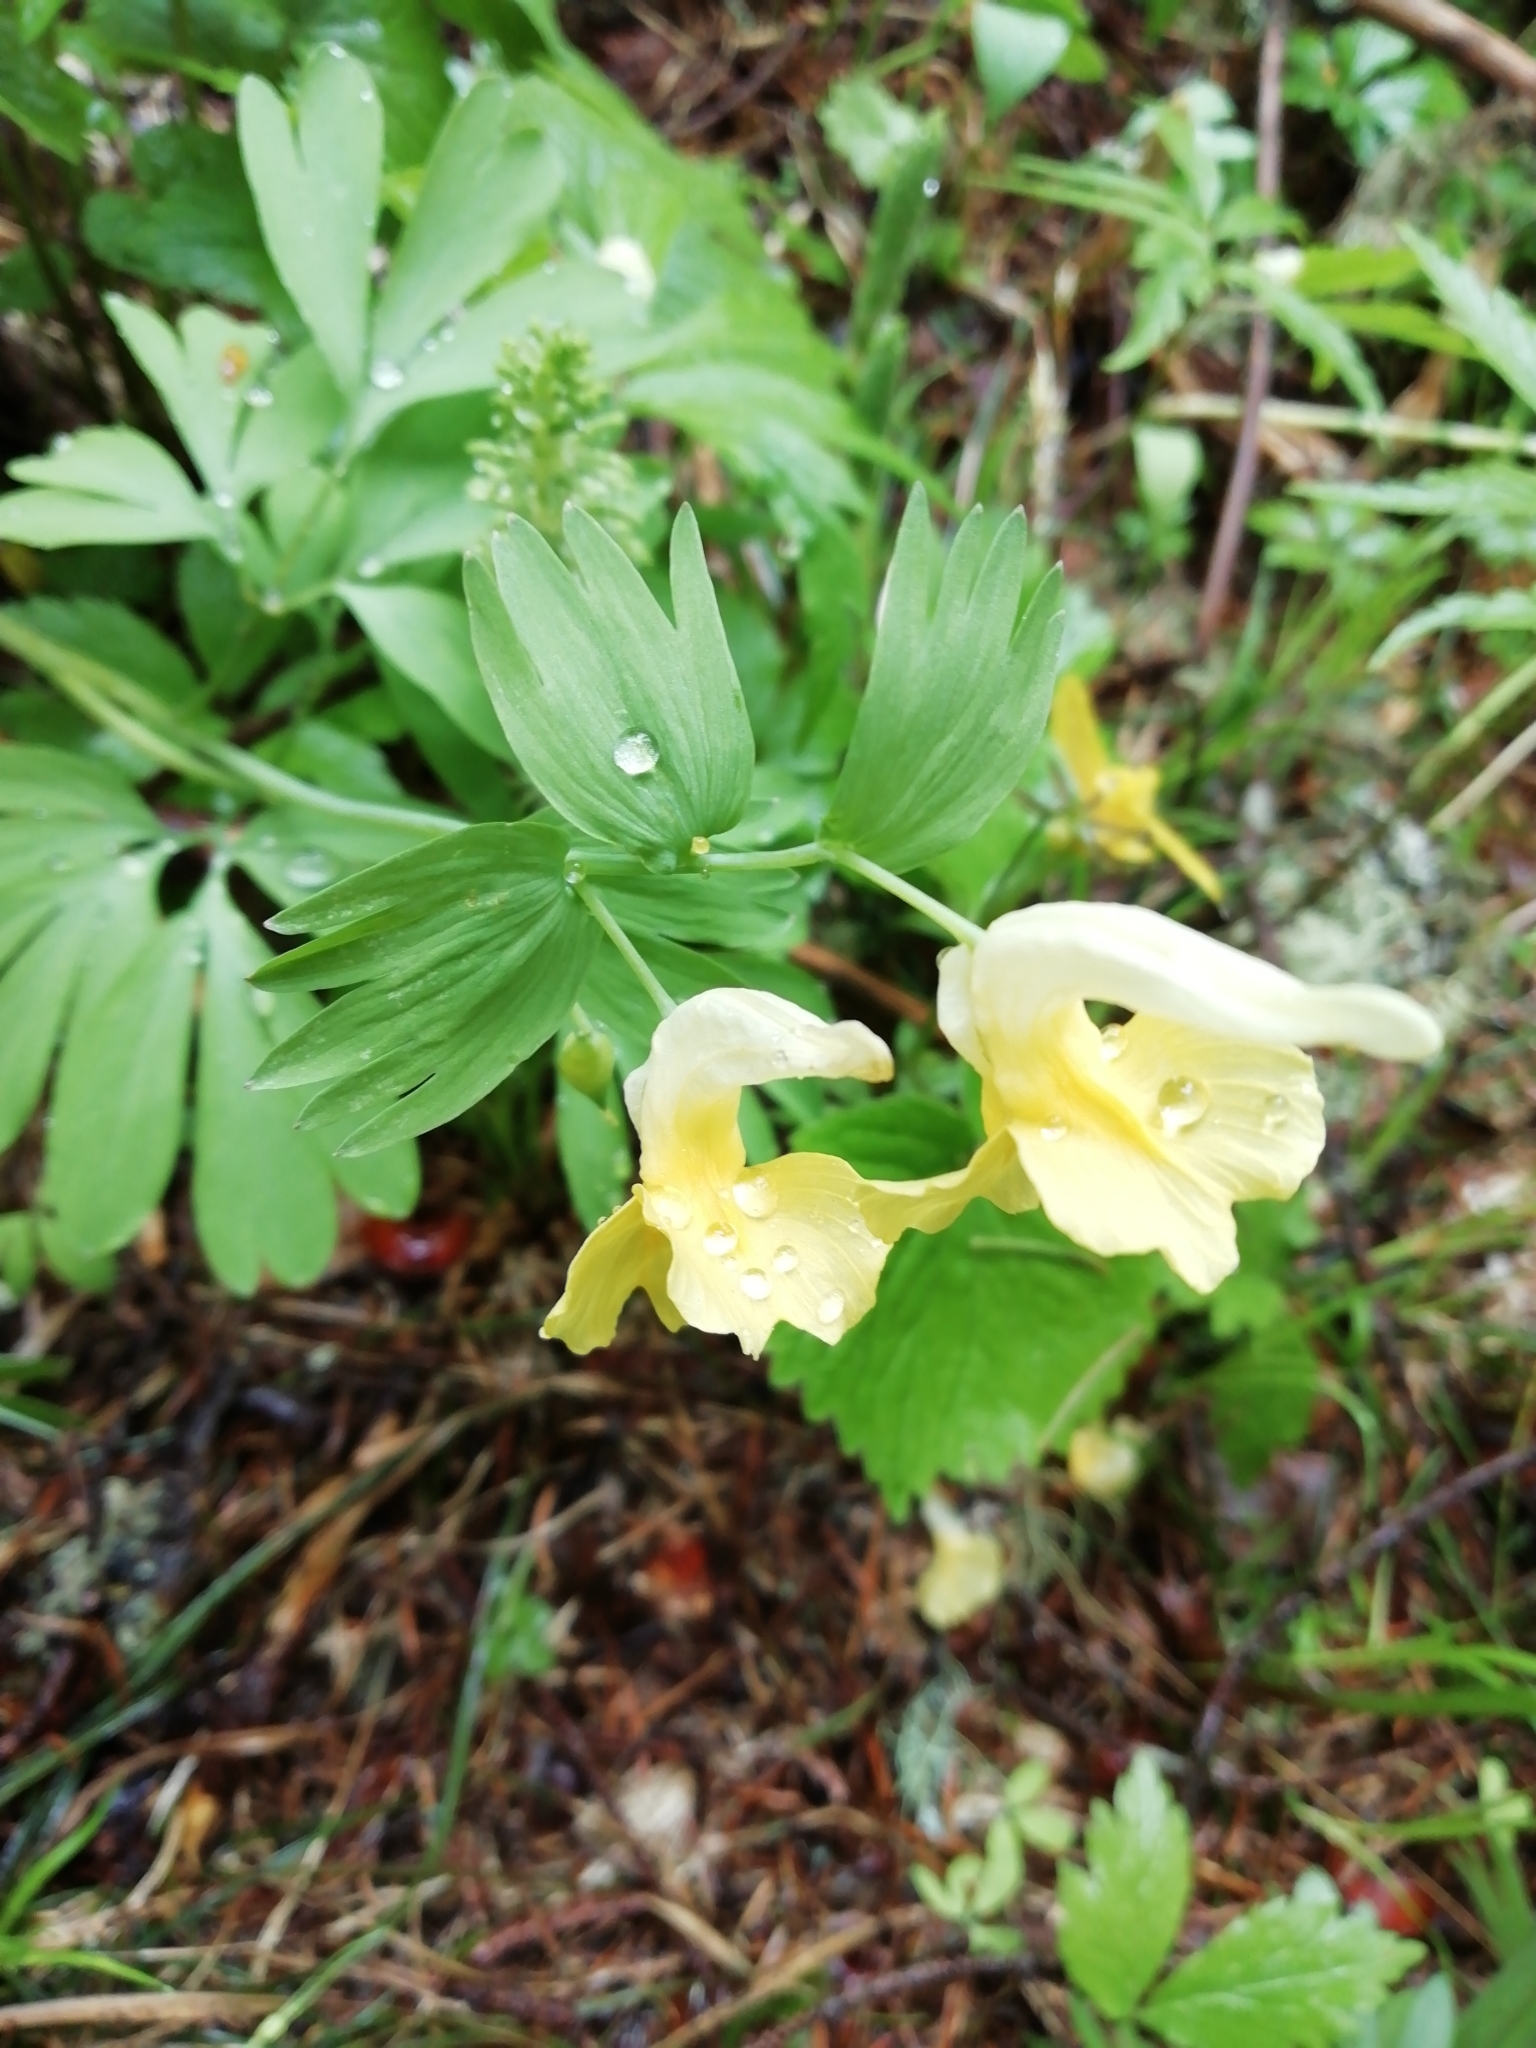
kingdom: Plantae
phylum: Tracheophyta
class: Magnoliopsida
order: Ranunculales
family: Papaveraceae
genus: Corydalis
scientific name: Corydalis bracteata
